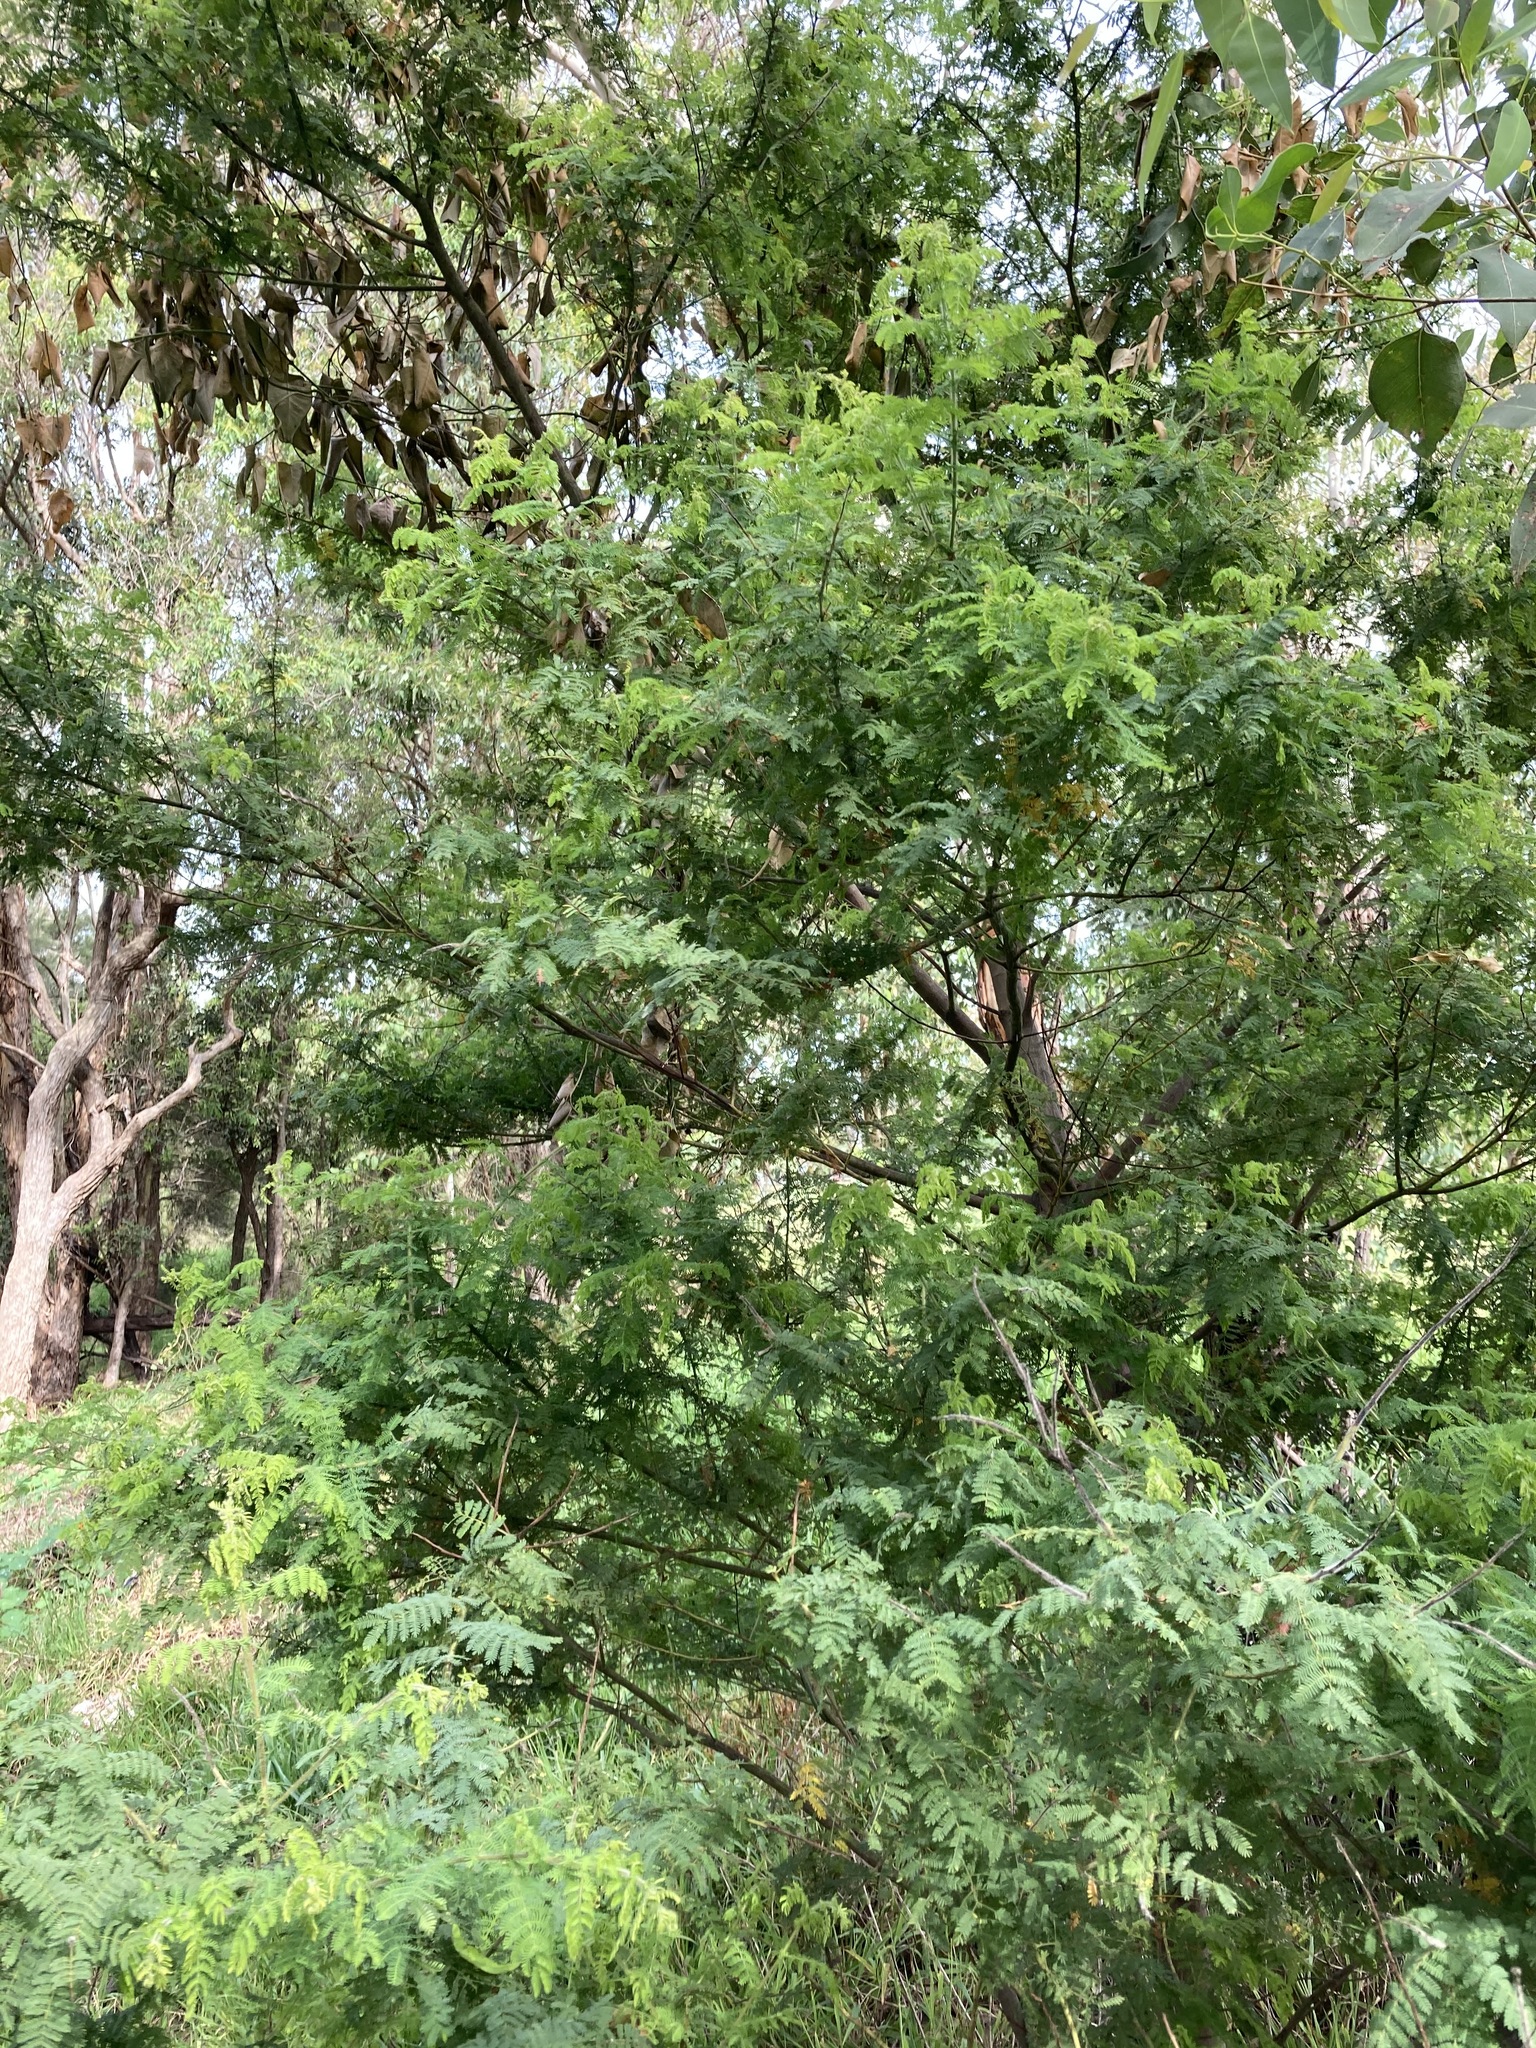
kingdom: Plantae
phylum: Tracheophyta
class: Magnoliopsida
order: Fabales
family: Fabaceae
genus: Acacia
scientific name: Acacia pubescens
